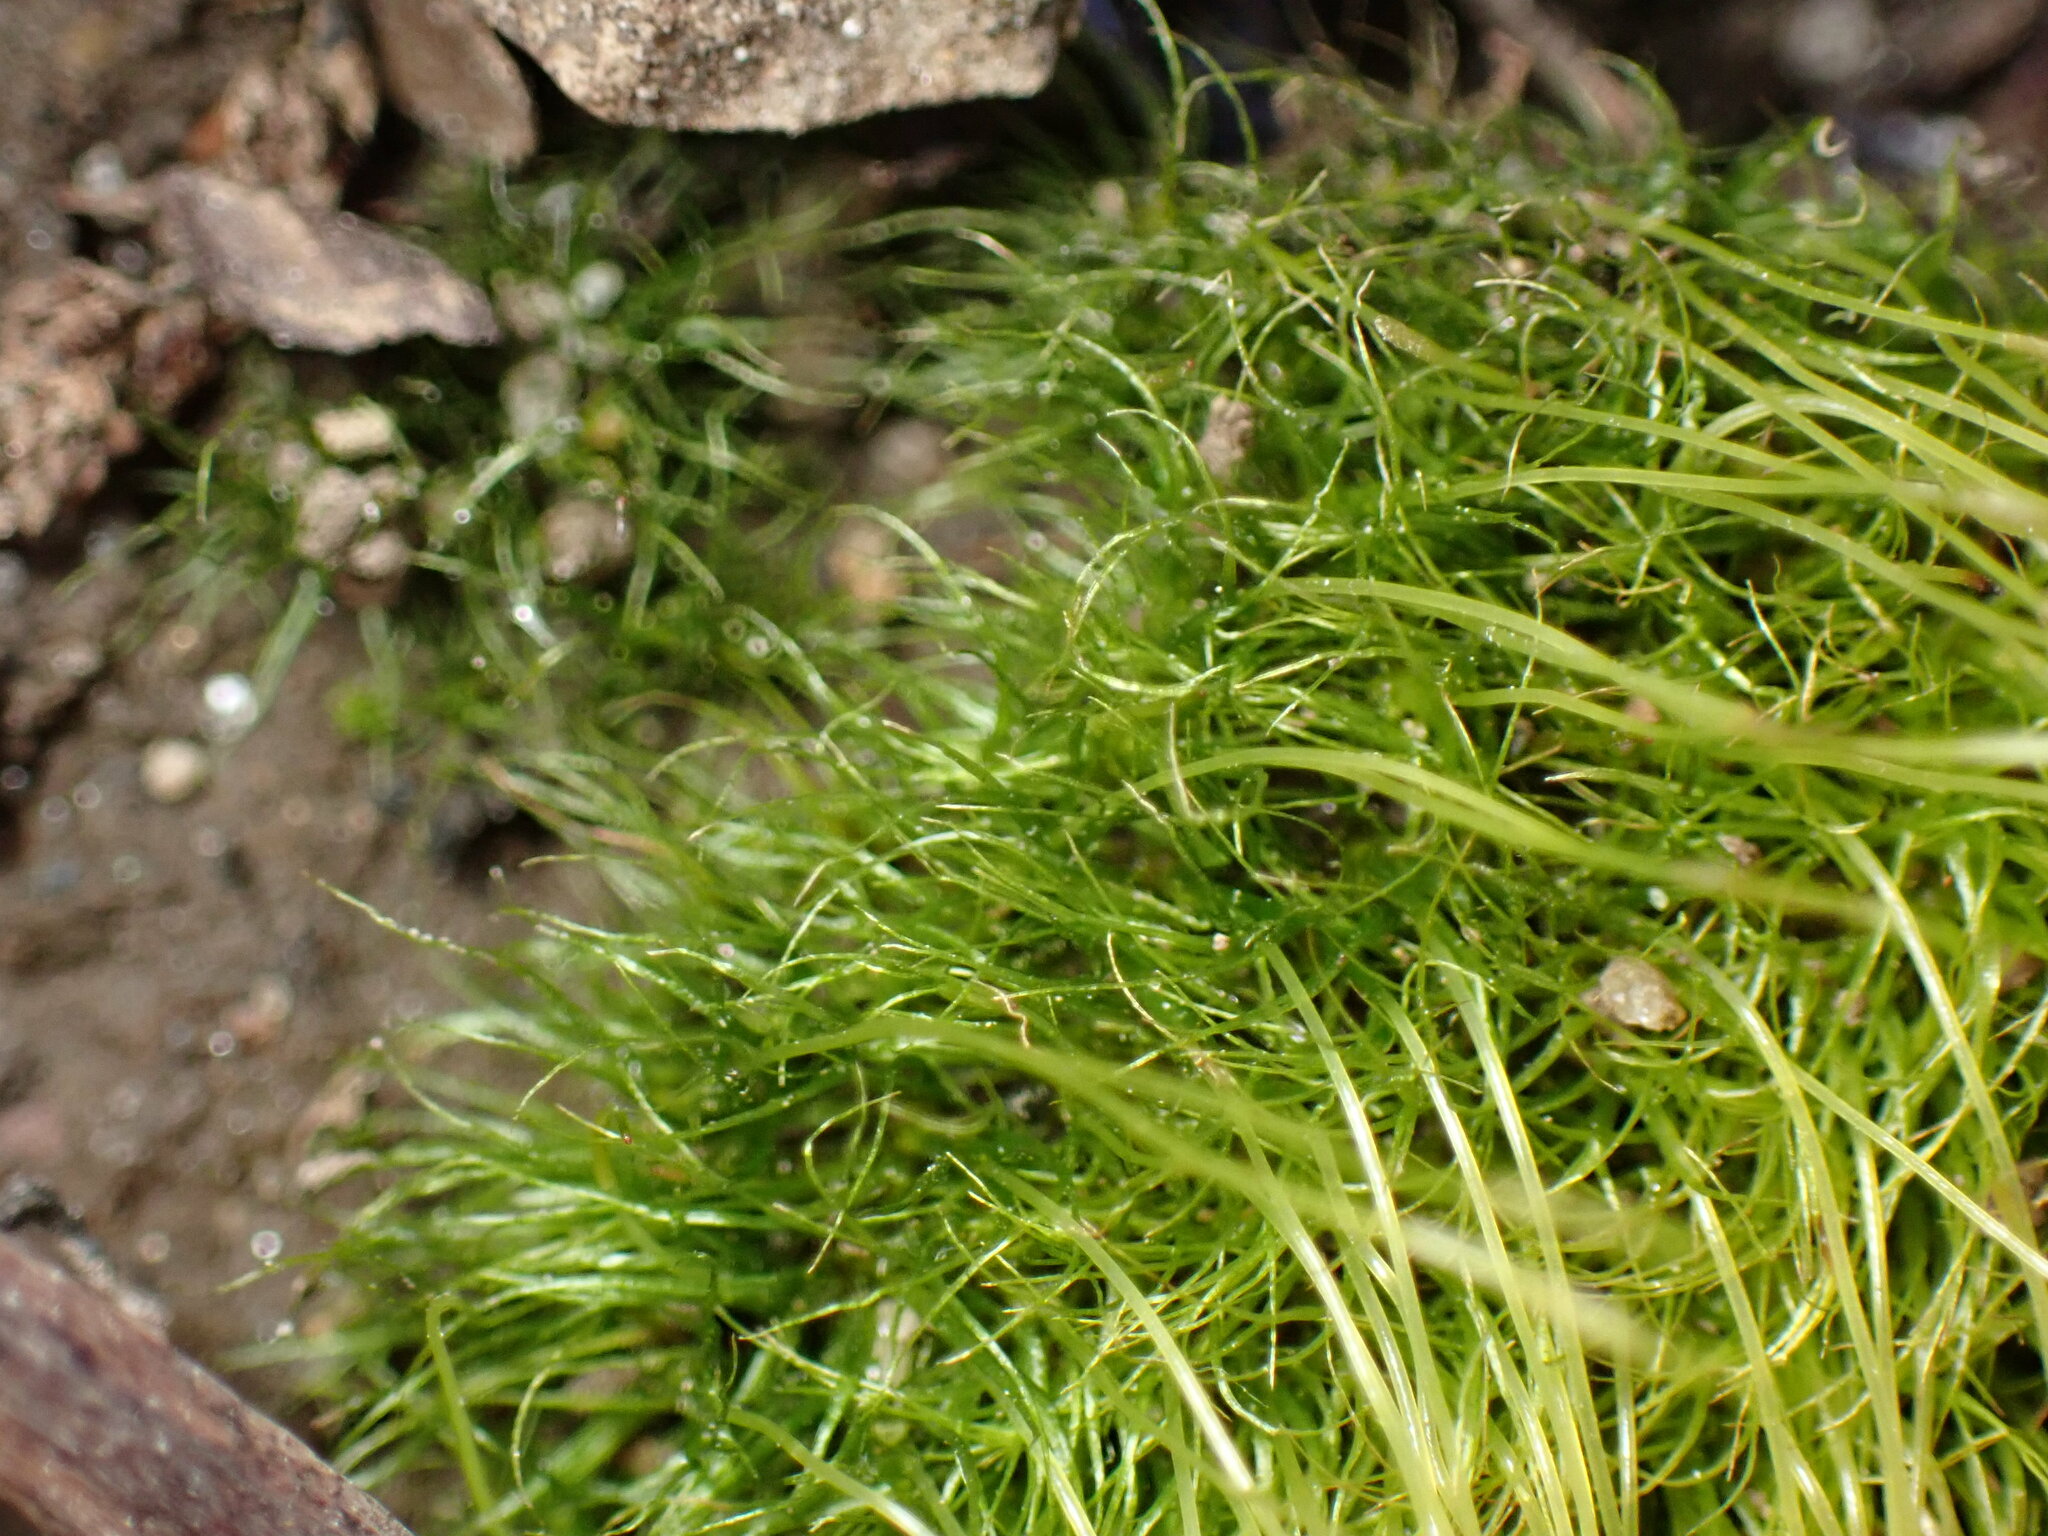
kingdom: Plantae
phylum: Bryophyta
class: Bryopsida
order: Dicranales
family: Ditrichaceae
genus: Ditrichum
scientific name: Ditrichum pallidum
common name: Pale cow-hair moss
